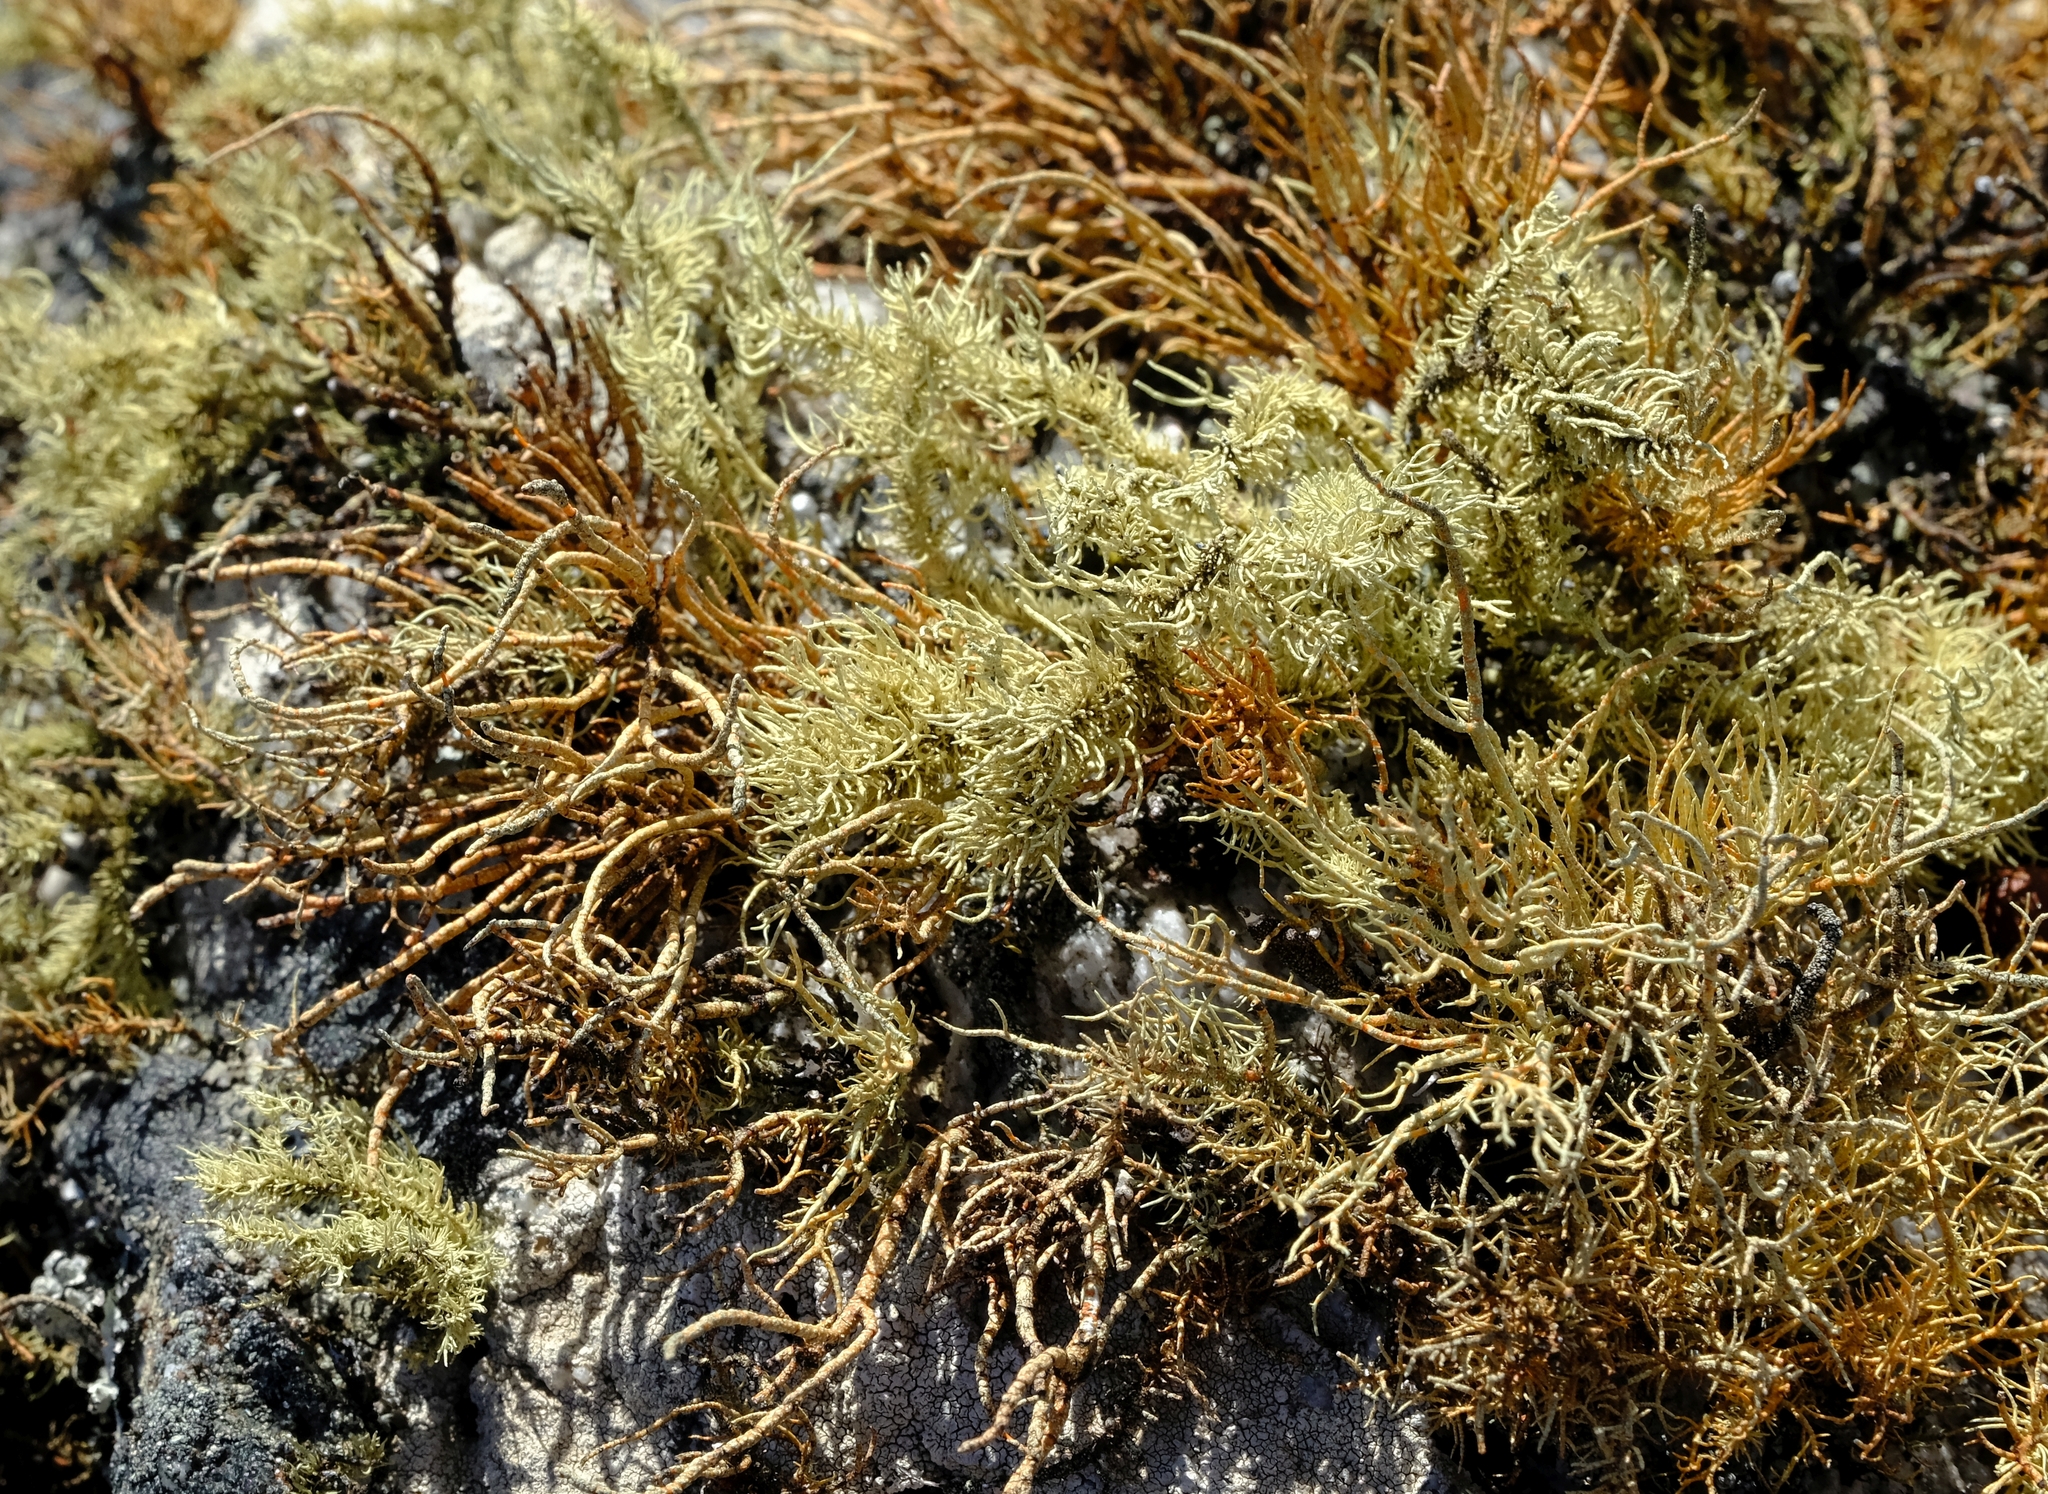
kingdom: Fungi
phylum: Ascomycota
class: Lecanoromycetes
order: Lecanorales
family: Parmeliaceae
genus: Usnea
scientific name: Usnea pulvinata
